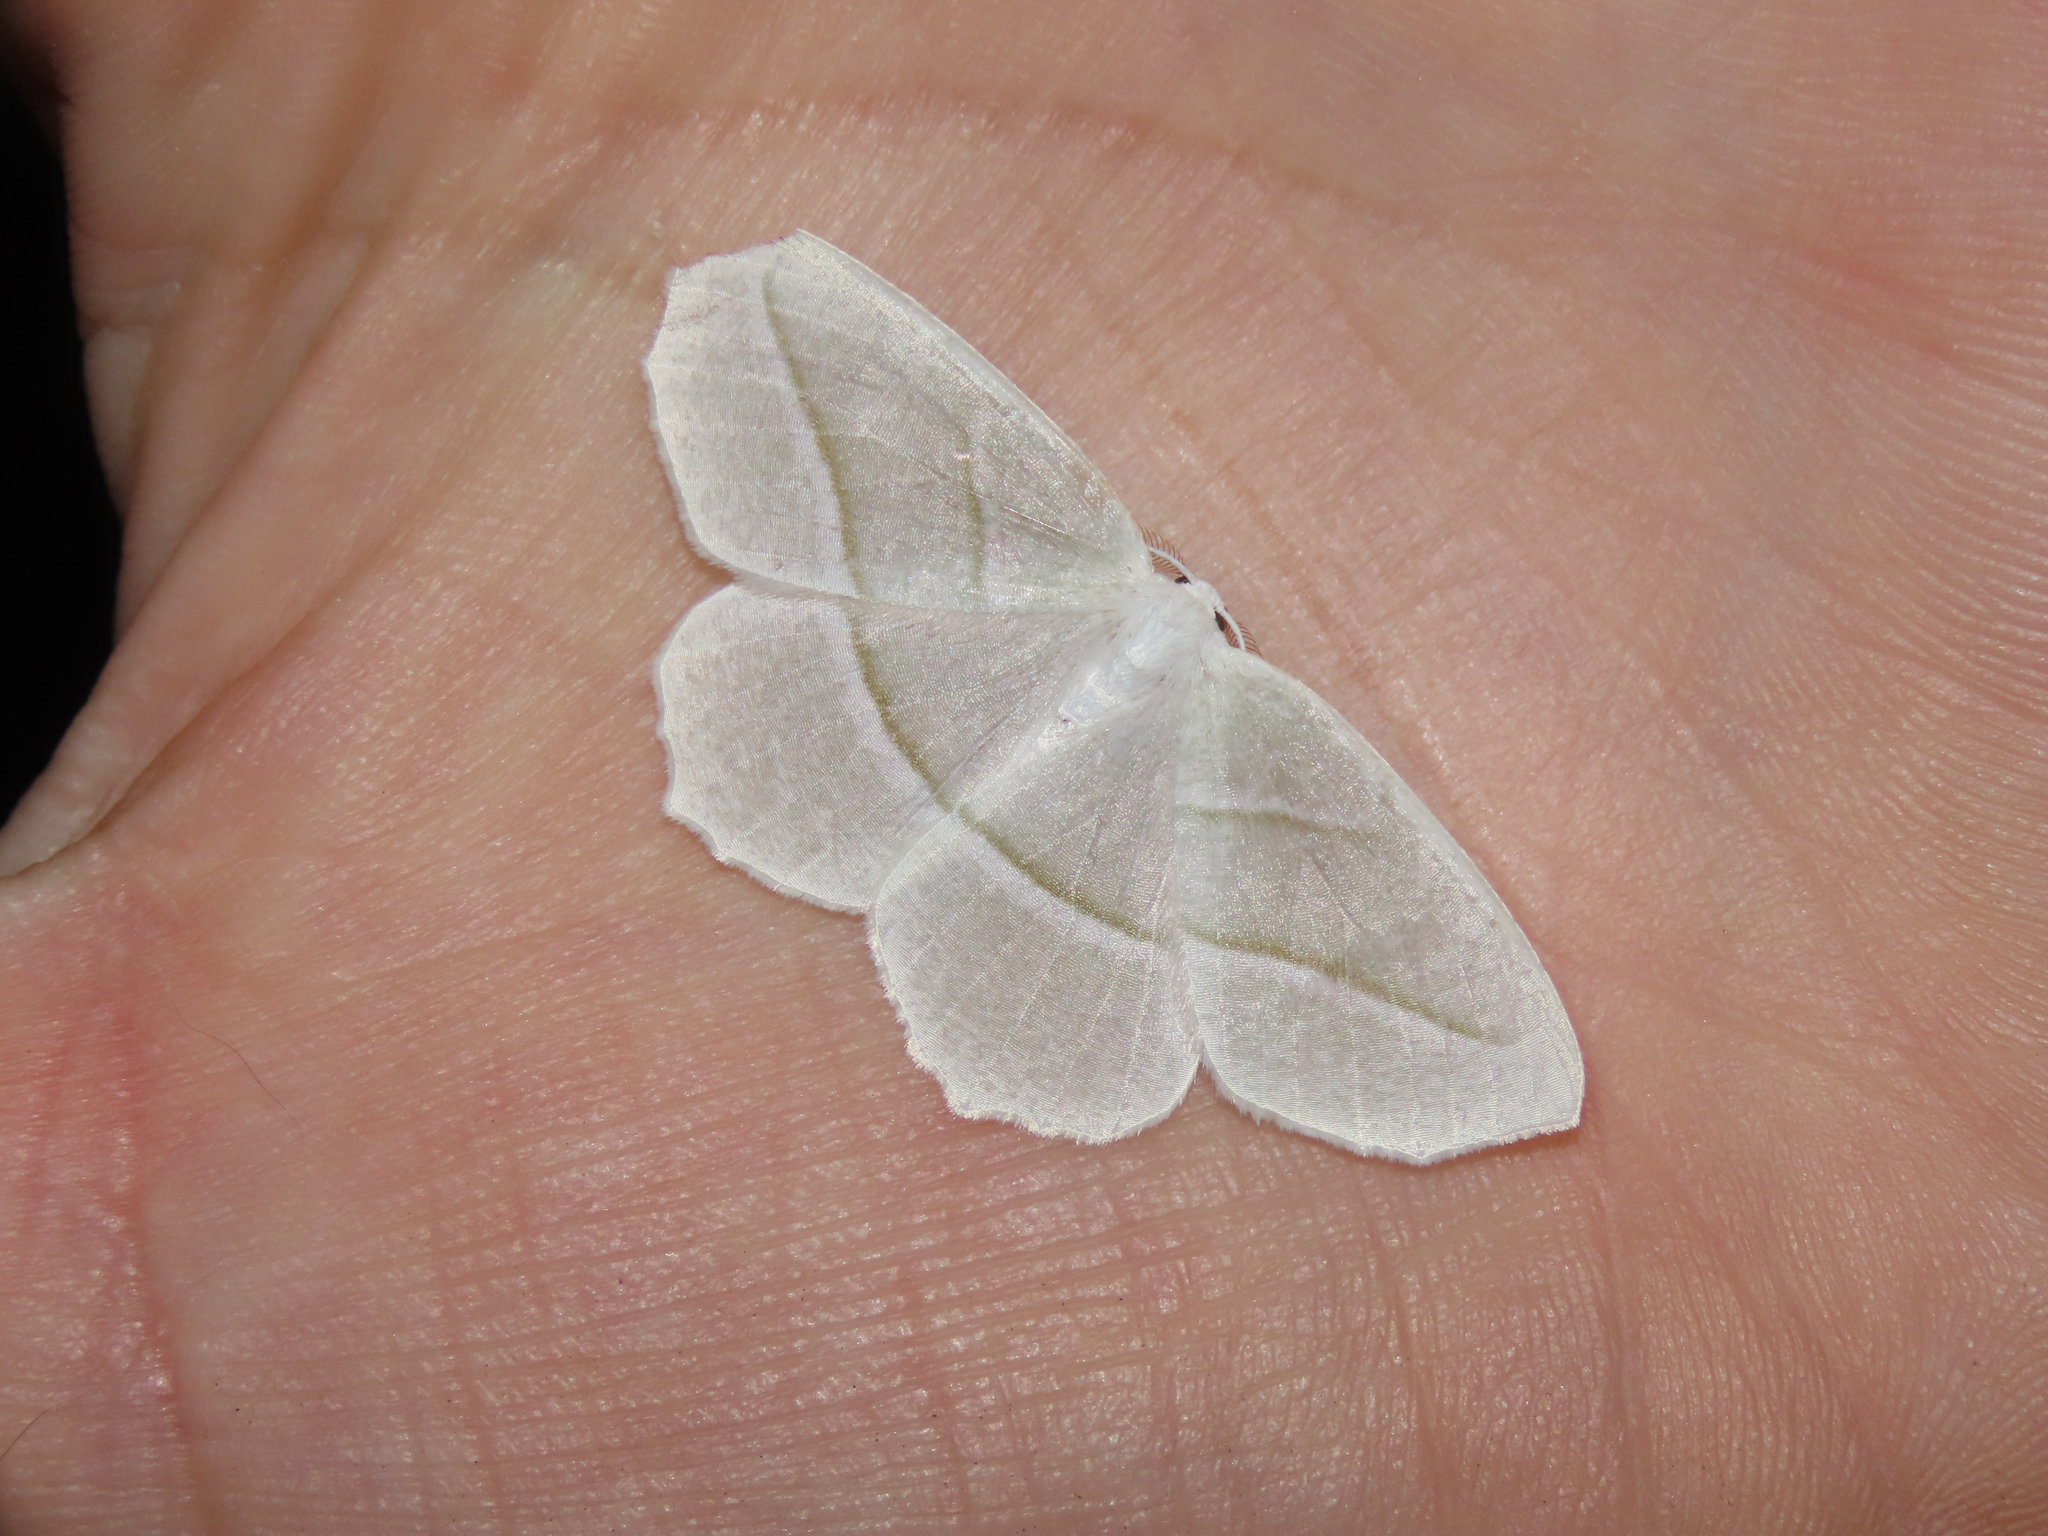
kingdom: Animalia
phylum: Arthropoda
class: Insecta
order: Lepidoptera
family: Geometridae
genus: Campaea
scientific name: Campaea perlata
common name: Fringed looper
